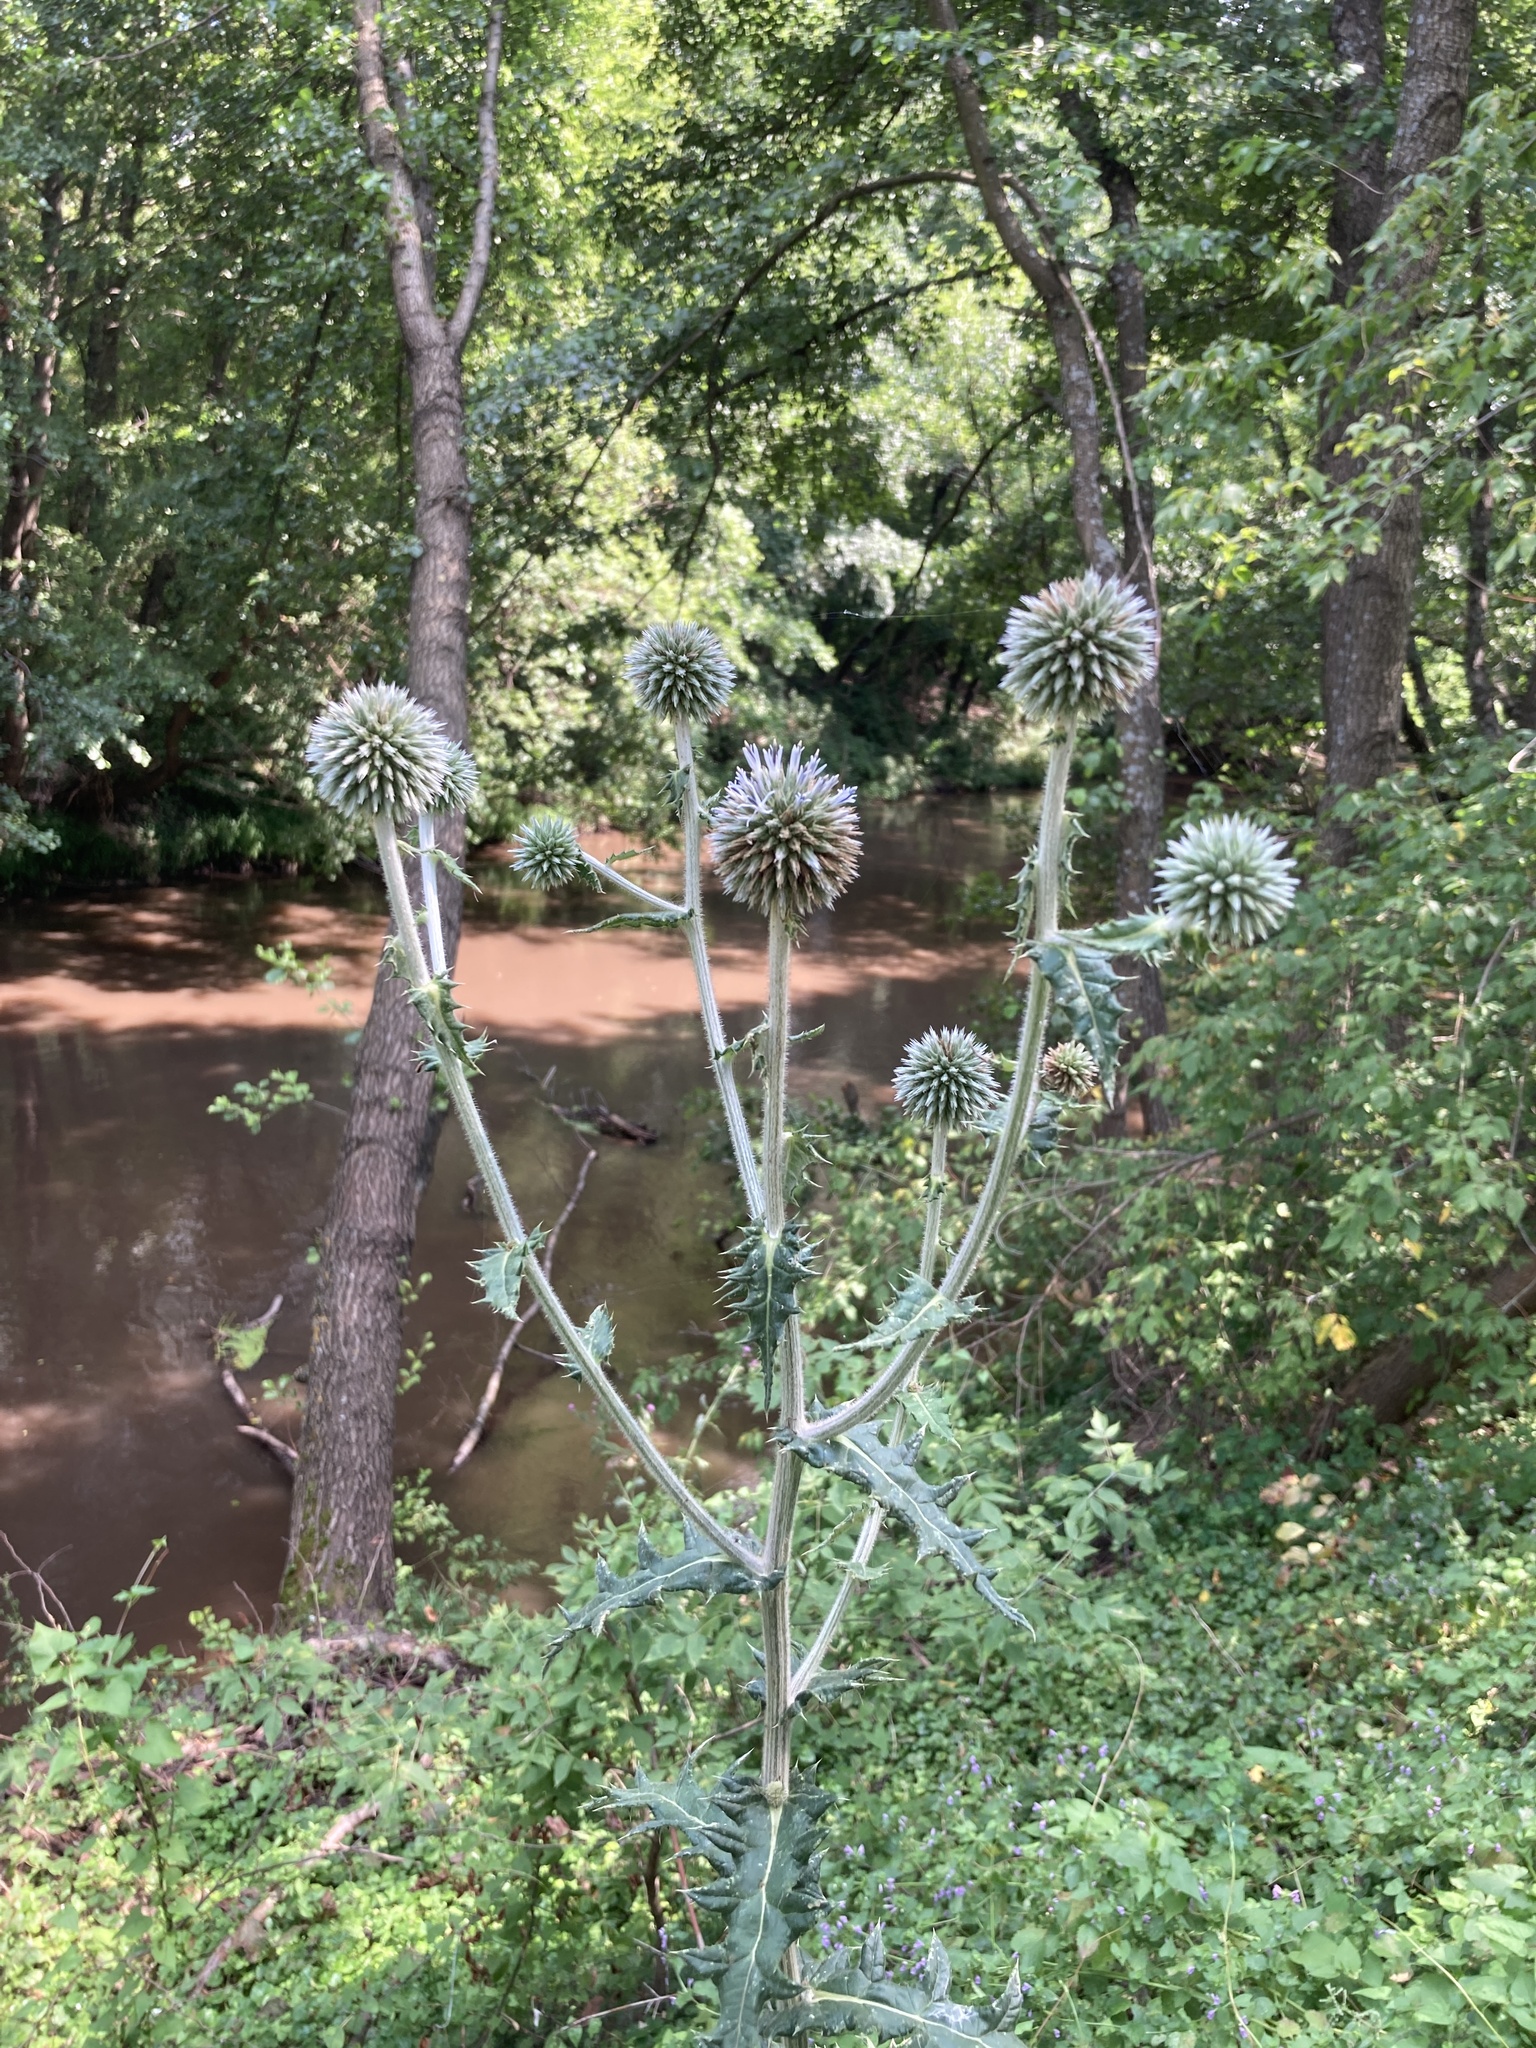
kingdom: Plantae
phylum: Tracheophyta
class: Magnoliopsida
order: Asterales
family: Asteraceae
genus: Echinops
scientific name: Echinops sphaerocephalus
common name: Glandular globe-thistle
